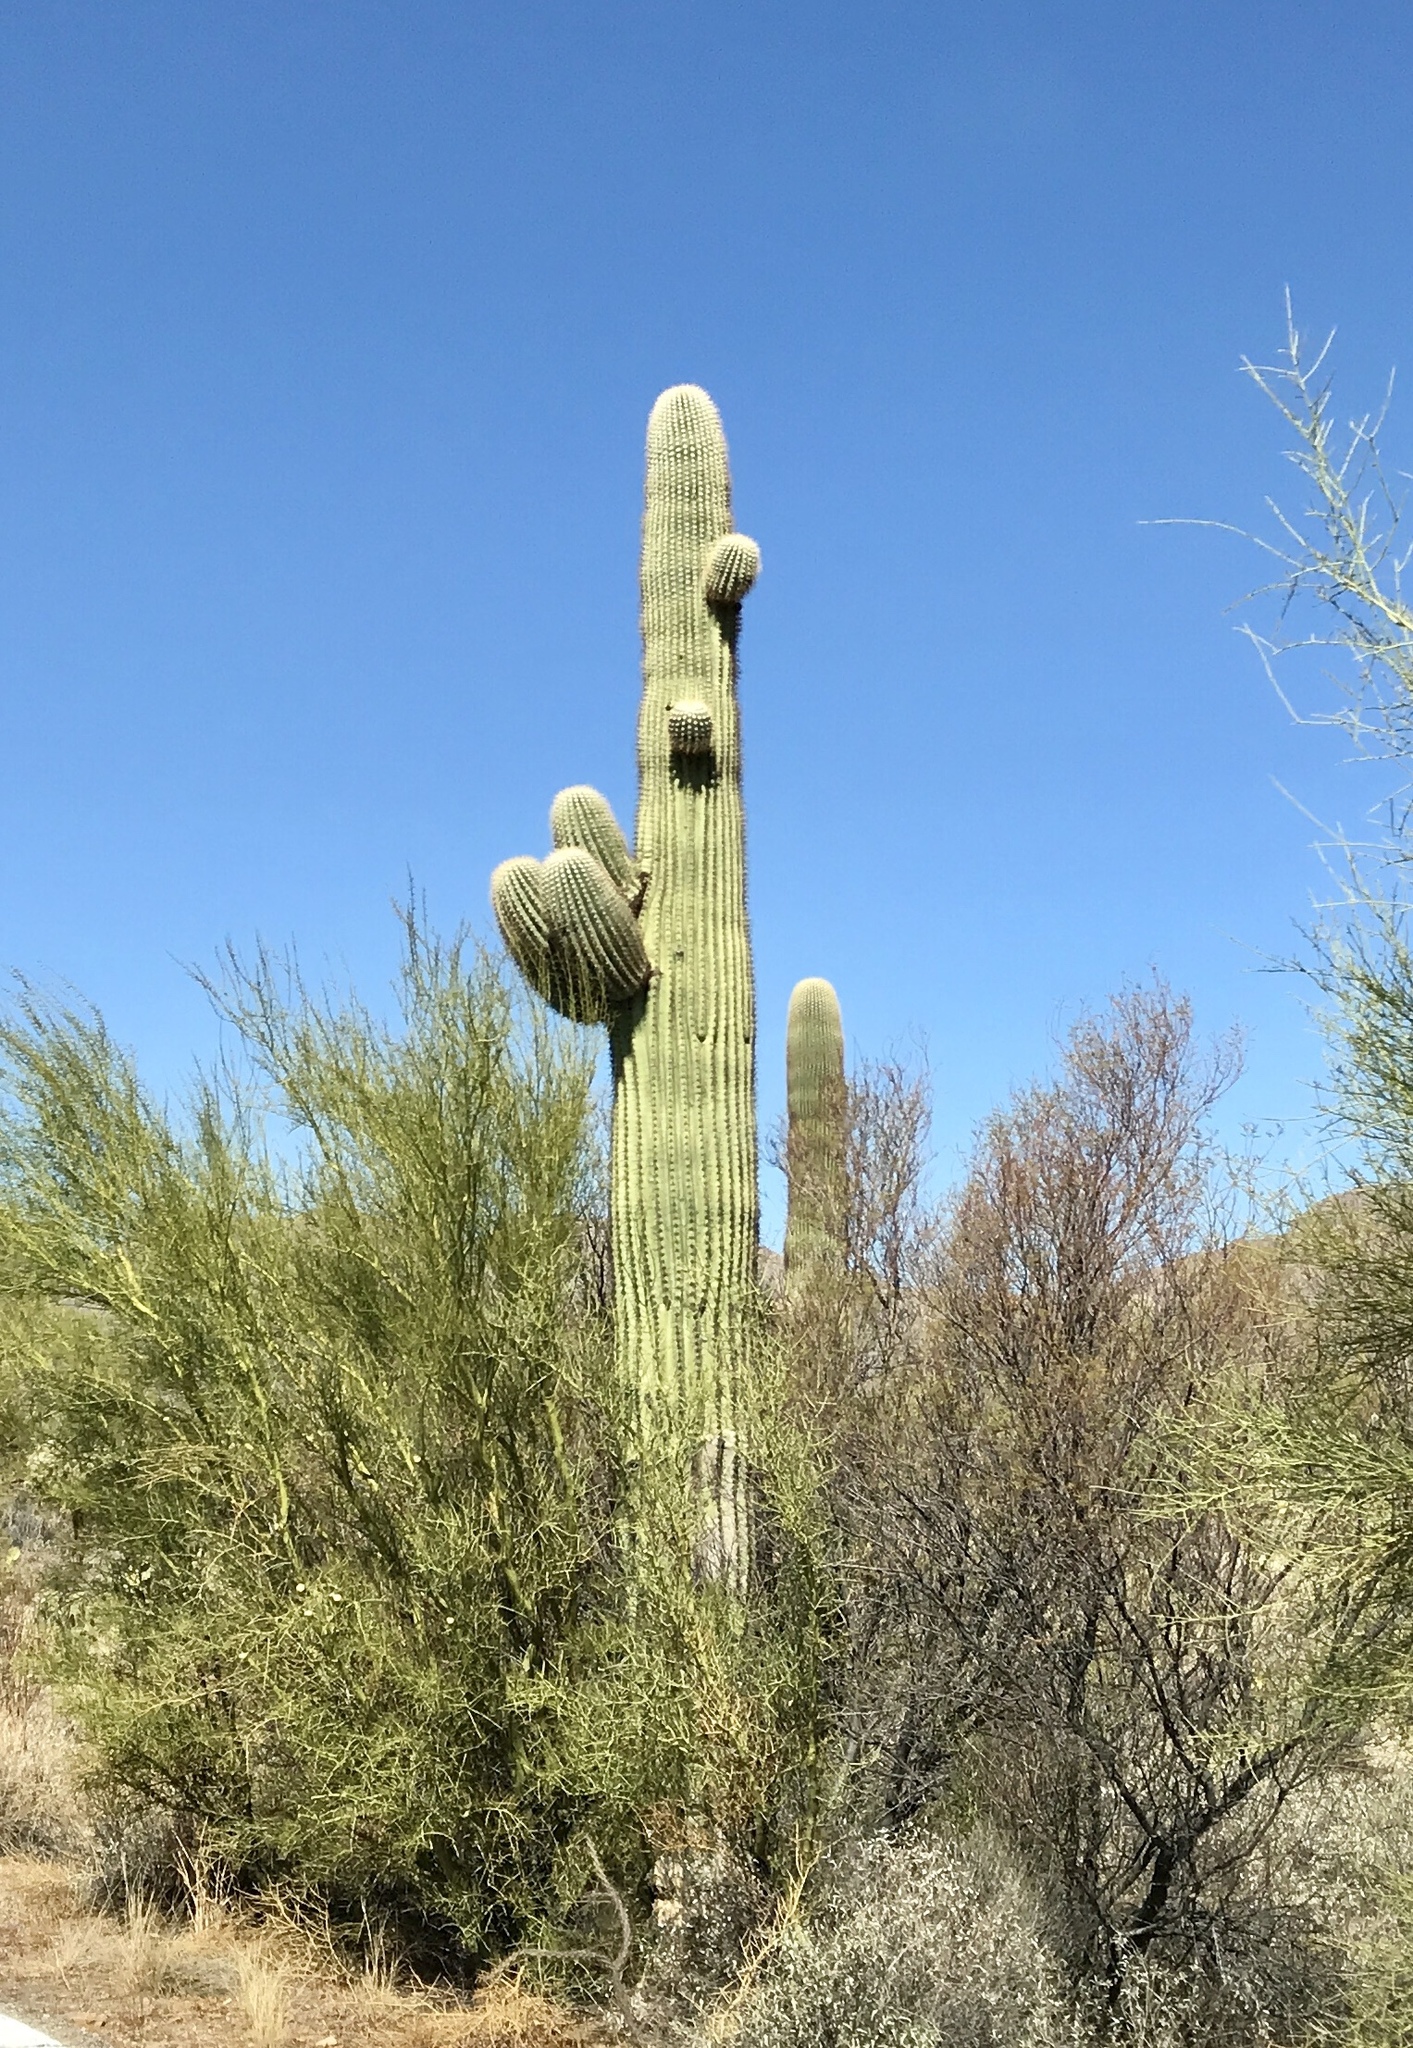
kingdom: Plantae
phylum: Tracheophyta
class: Magnoliopsida
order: Caryophyllales
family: Cactaceae
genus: Carnegiea
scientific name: Carnegiea gigantea
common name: Saguaro
